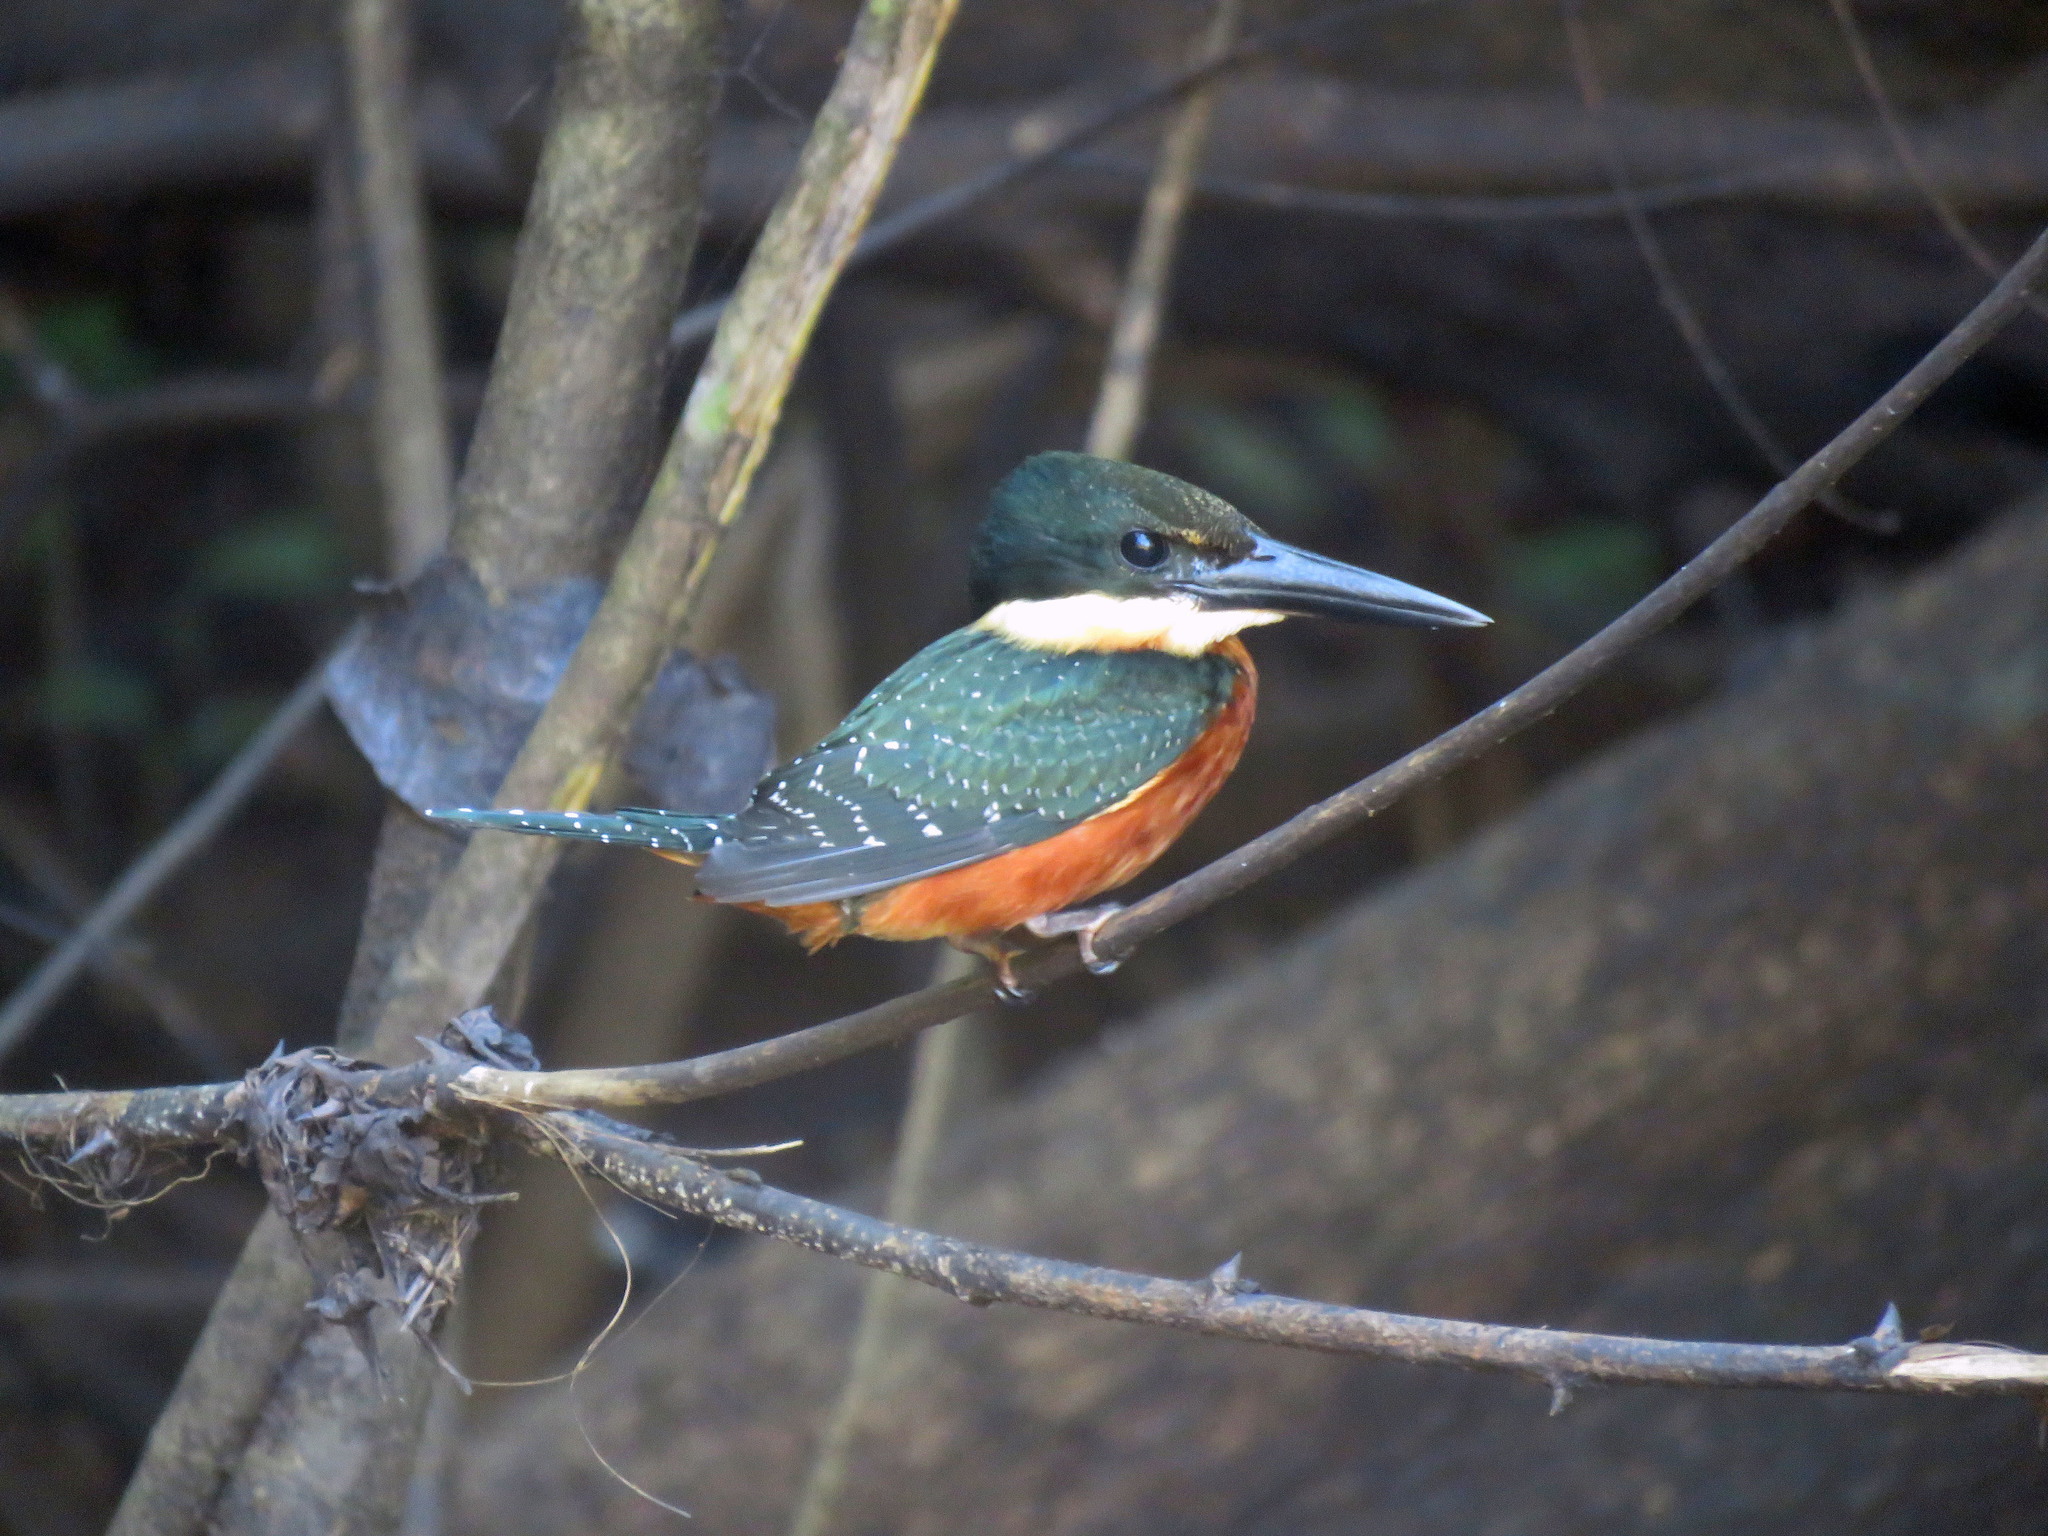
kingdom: Animalia
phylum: Chordata
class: Aves
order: Coraciiformes
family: Alcedinidae
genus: Chloroceryle
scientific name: Chloroceryle inda
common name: Green-and-rufous kingfisher
